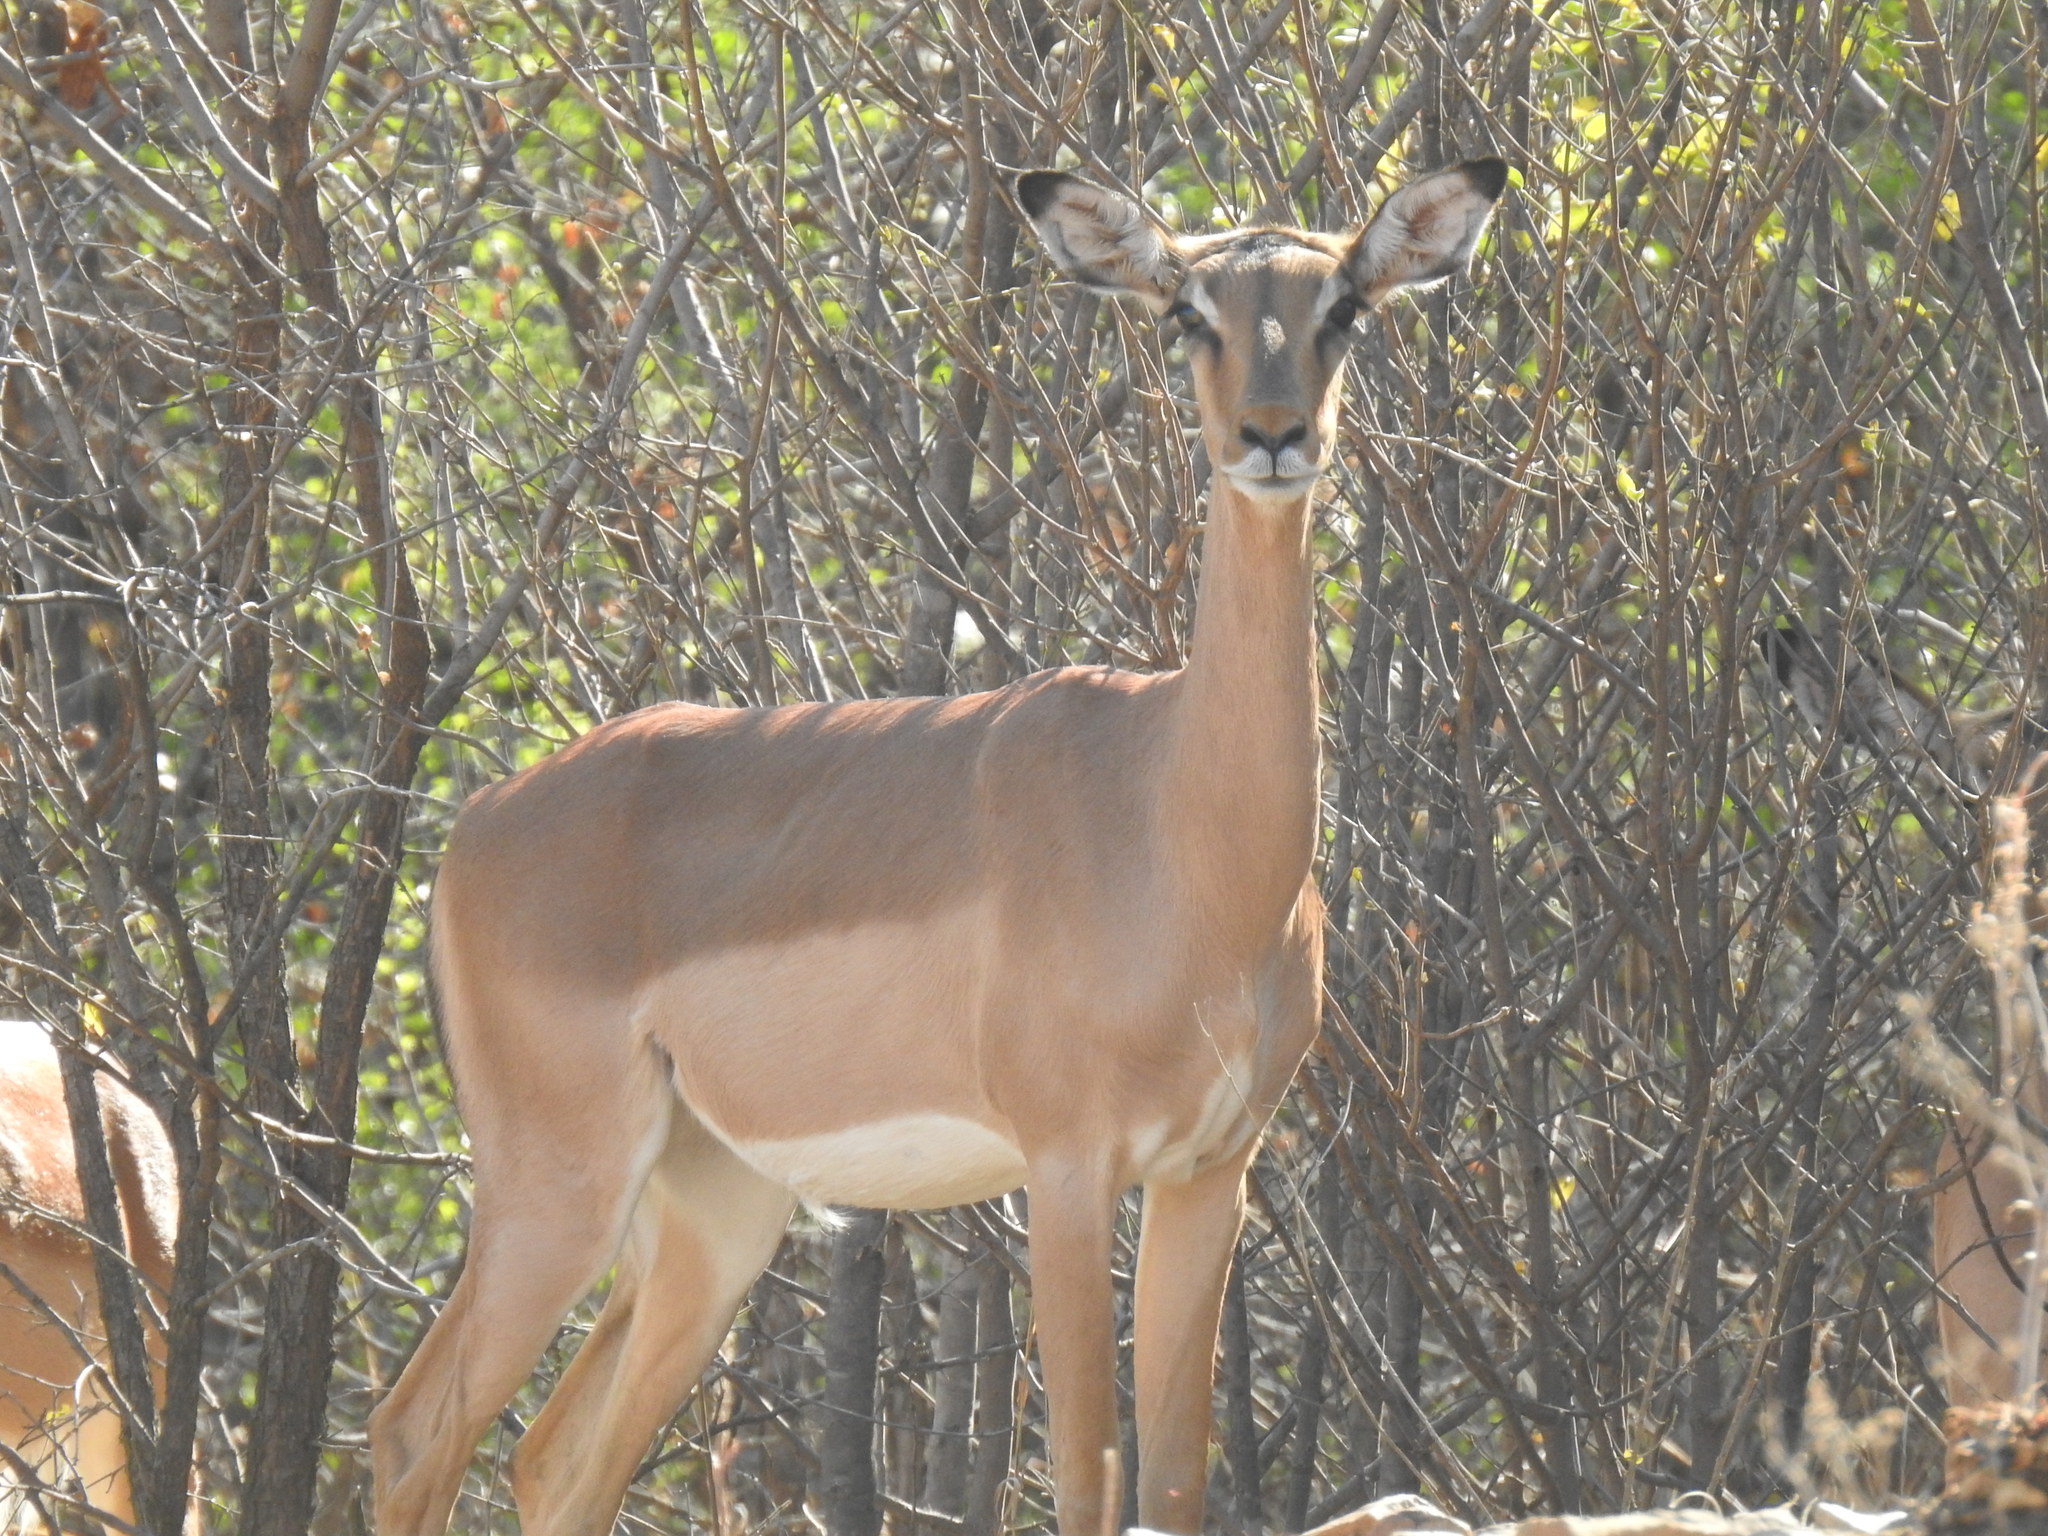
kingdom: Animalia
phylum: Chordata
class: Mammalia
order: Artiodactyla
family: Bovidae
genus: Aepyceros
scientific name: Aepyceros melampus
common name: Impala
